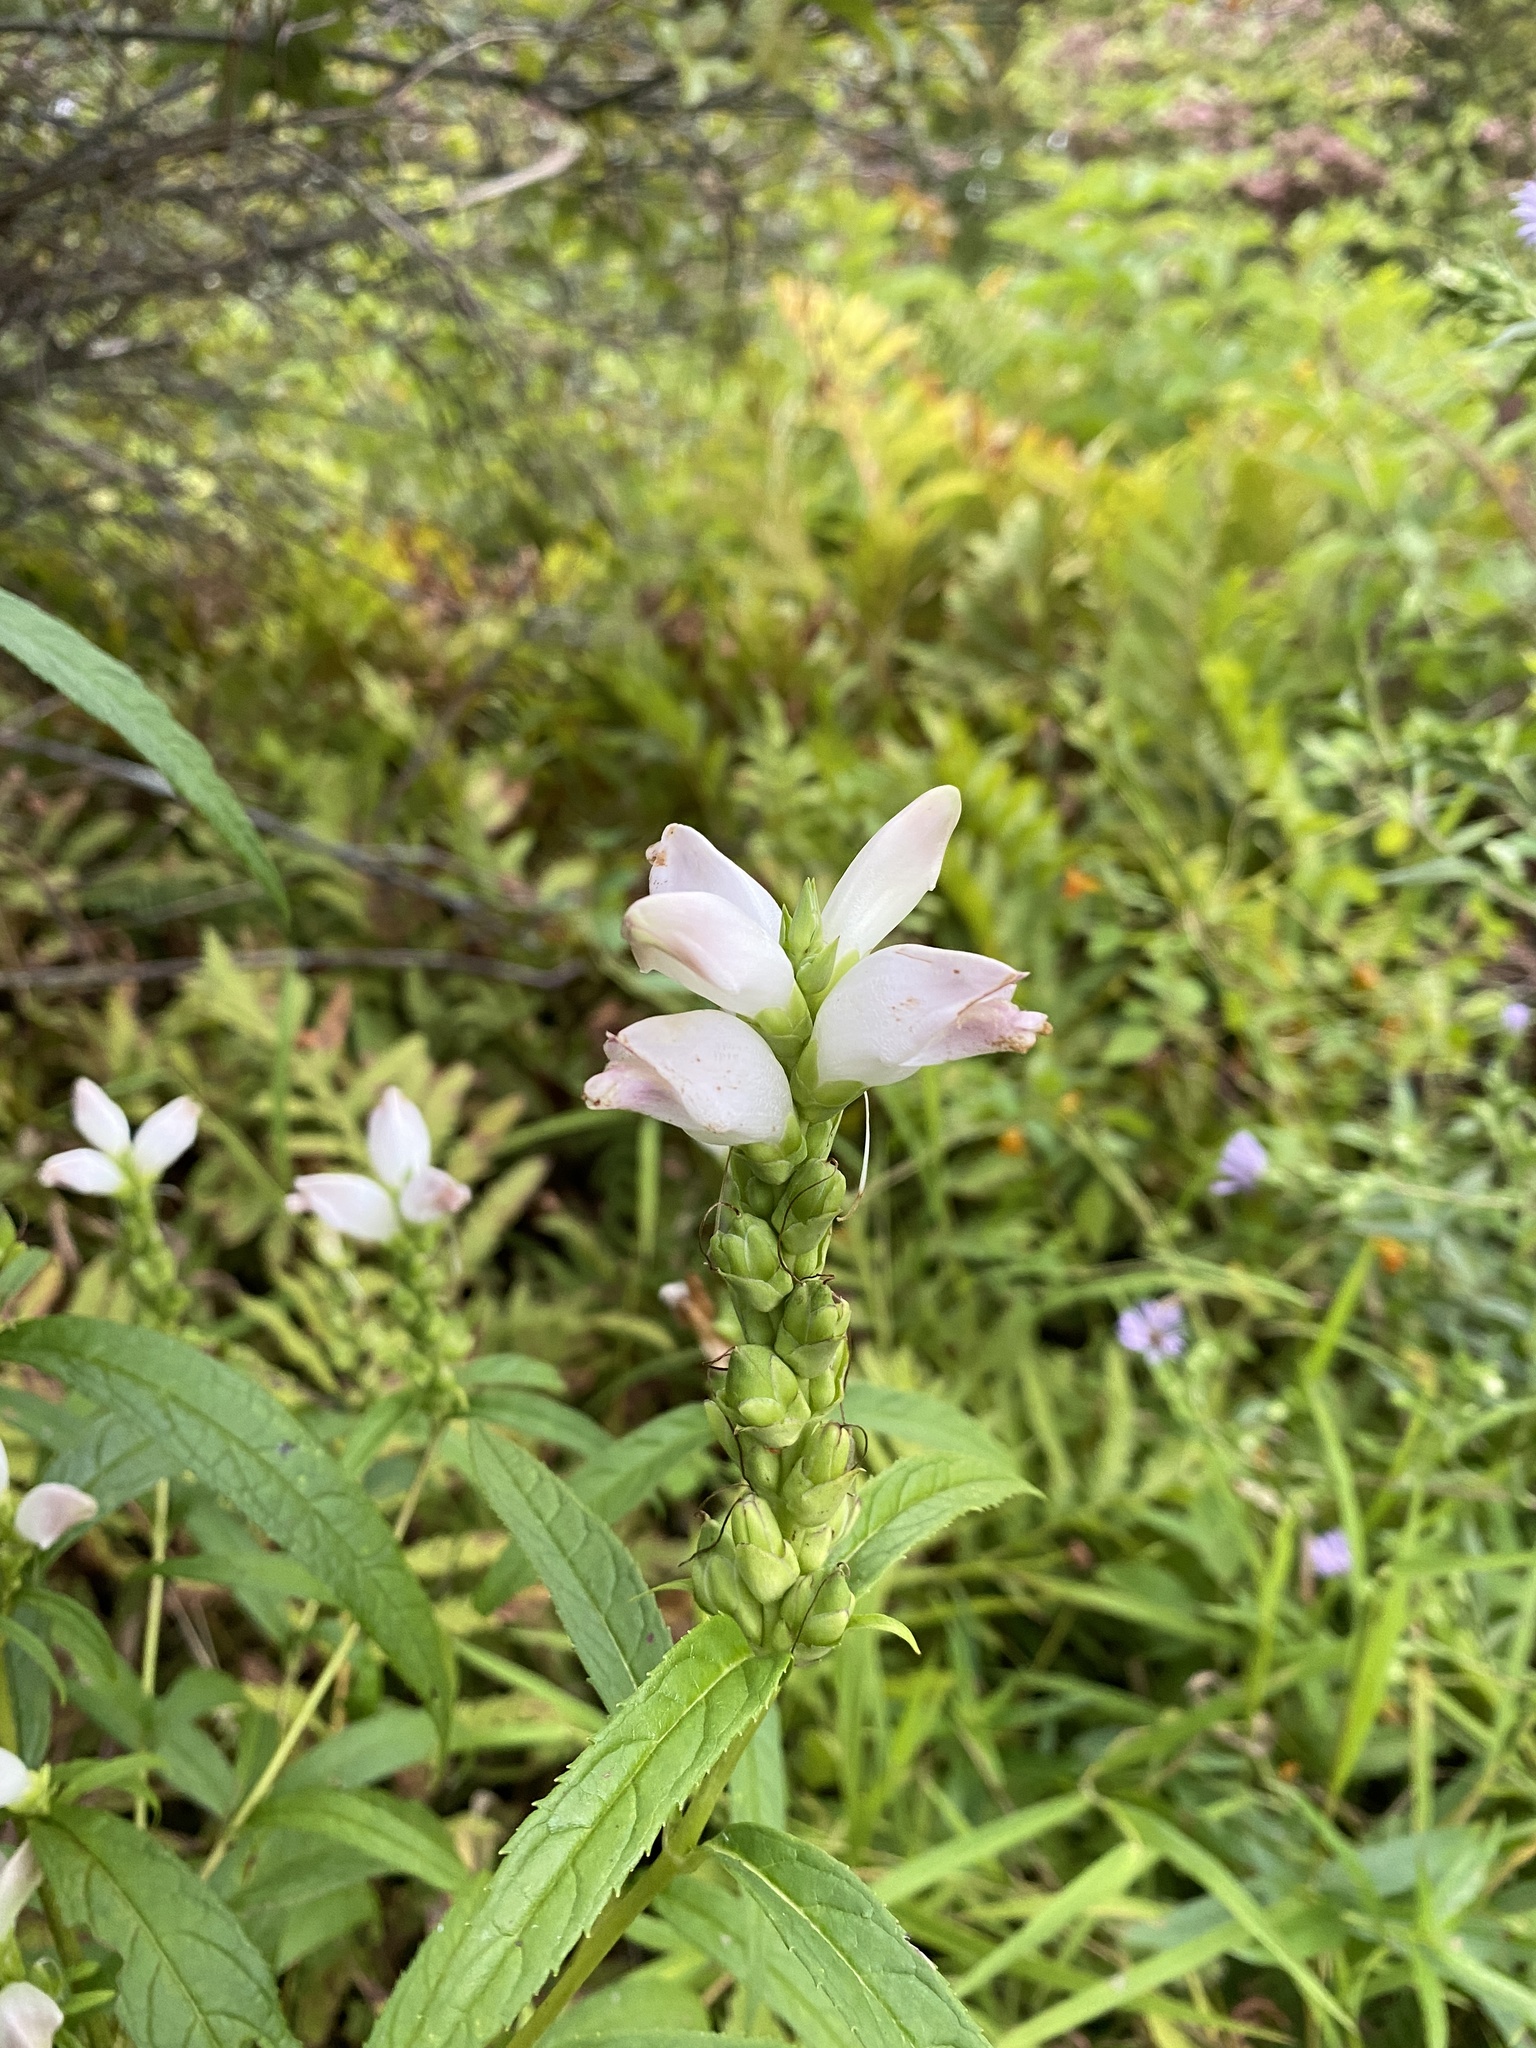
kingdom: Plantae
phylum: Tracheophyta
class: Magnoliopsida
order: Lamiales
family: Plantaginaceae
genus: Chelone
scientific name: Chelone glabra
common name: Snakehead
